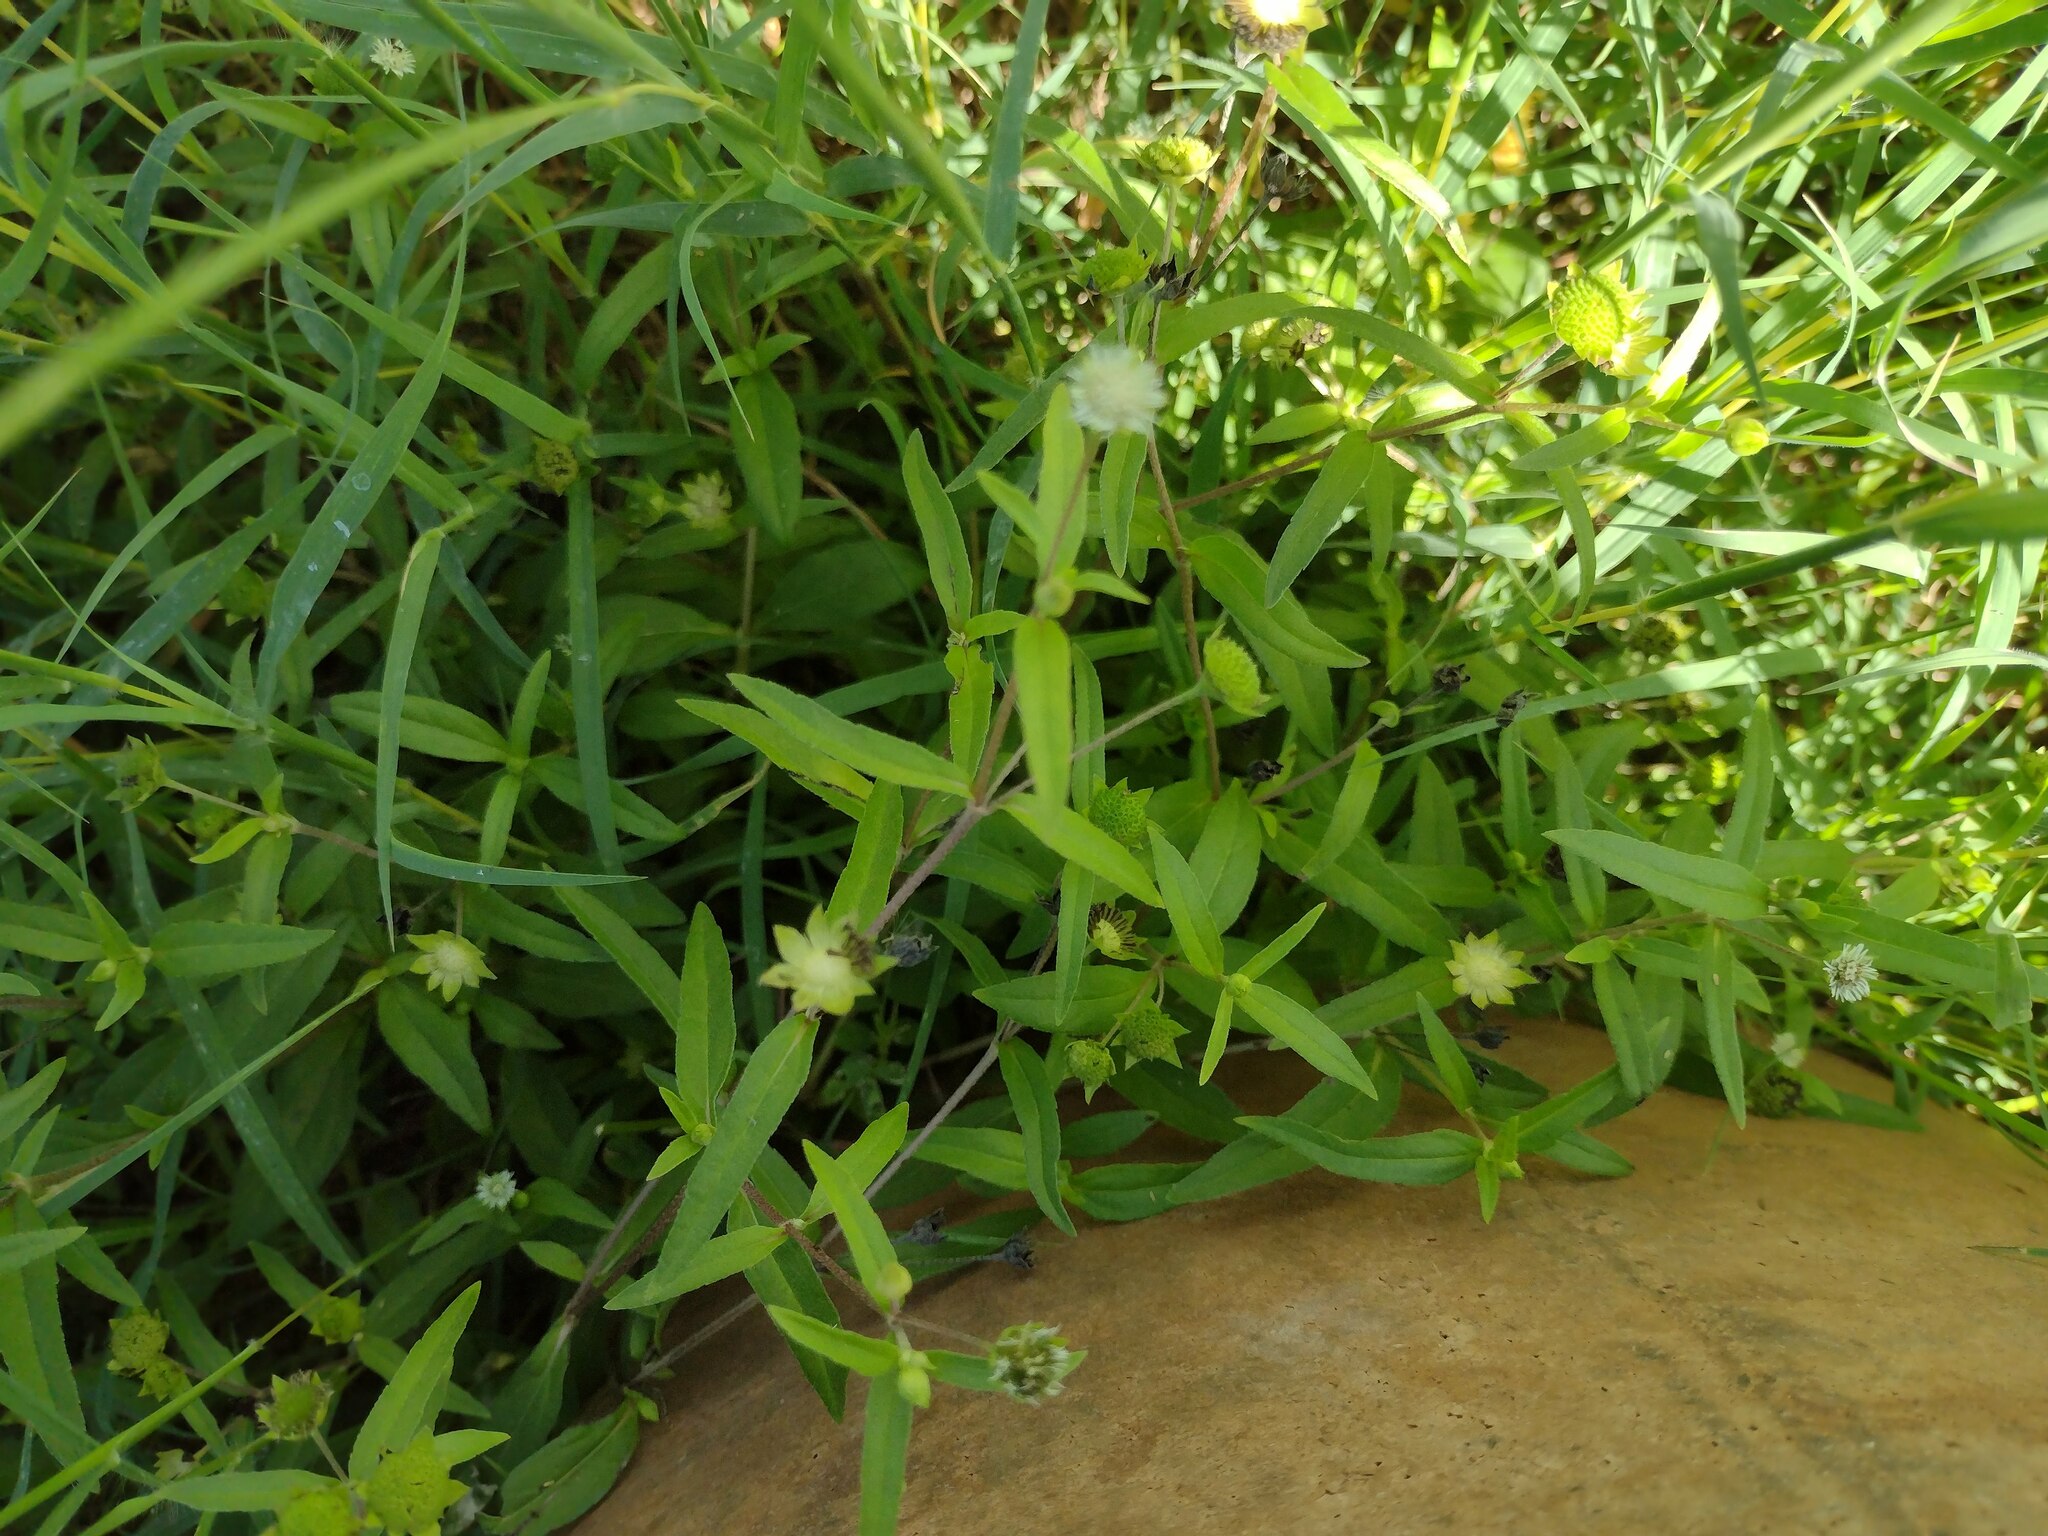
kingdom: Plantae
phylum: Tracheophyta
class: Magnoliopsida
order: Asterales
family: Asteraceae
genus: Eclipta
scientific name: Eclipta prostrata
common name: False daisy
